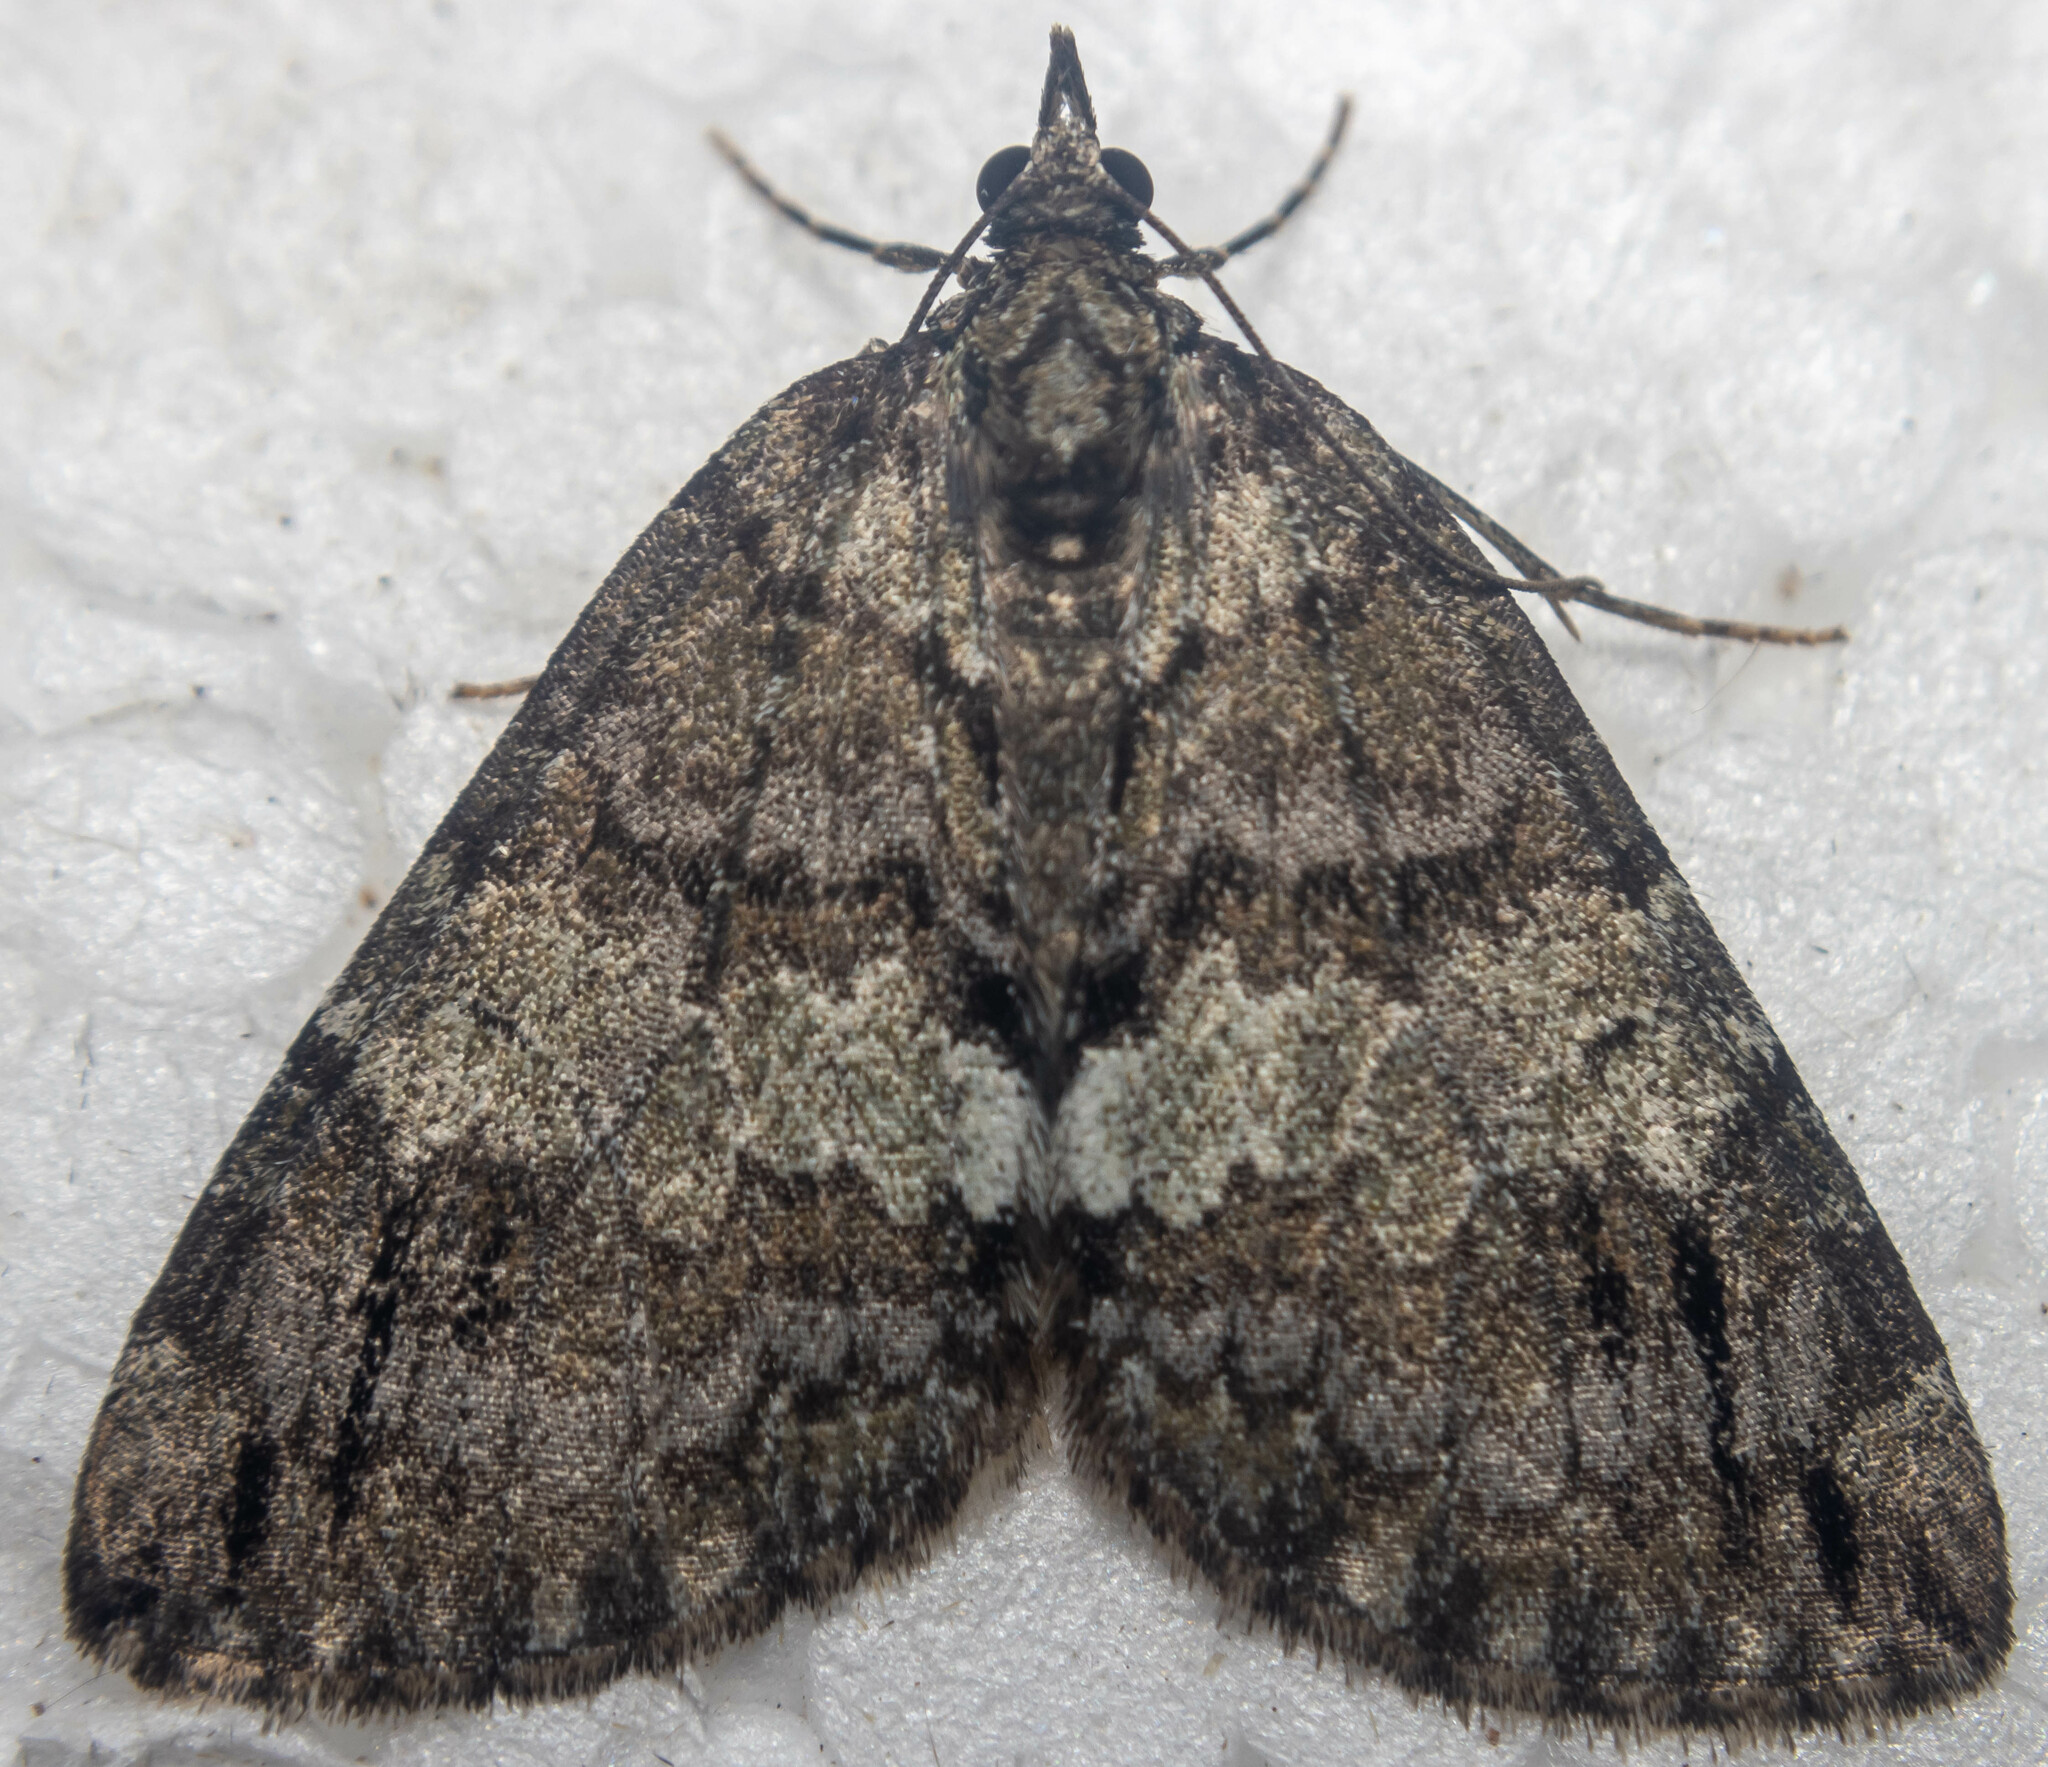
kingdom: Animalia
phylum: Arthropoda
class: Insecta
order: Lepidoptera
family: Geometridae
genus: Hydriomena
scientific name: Hydriomena impluviata
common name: May highflyer
